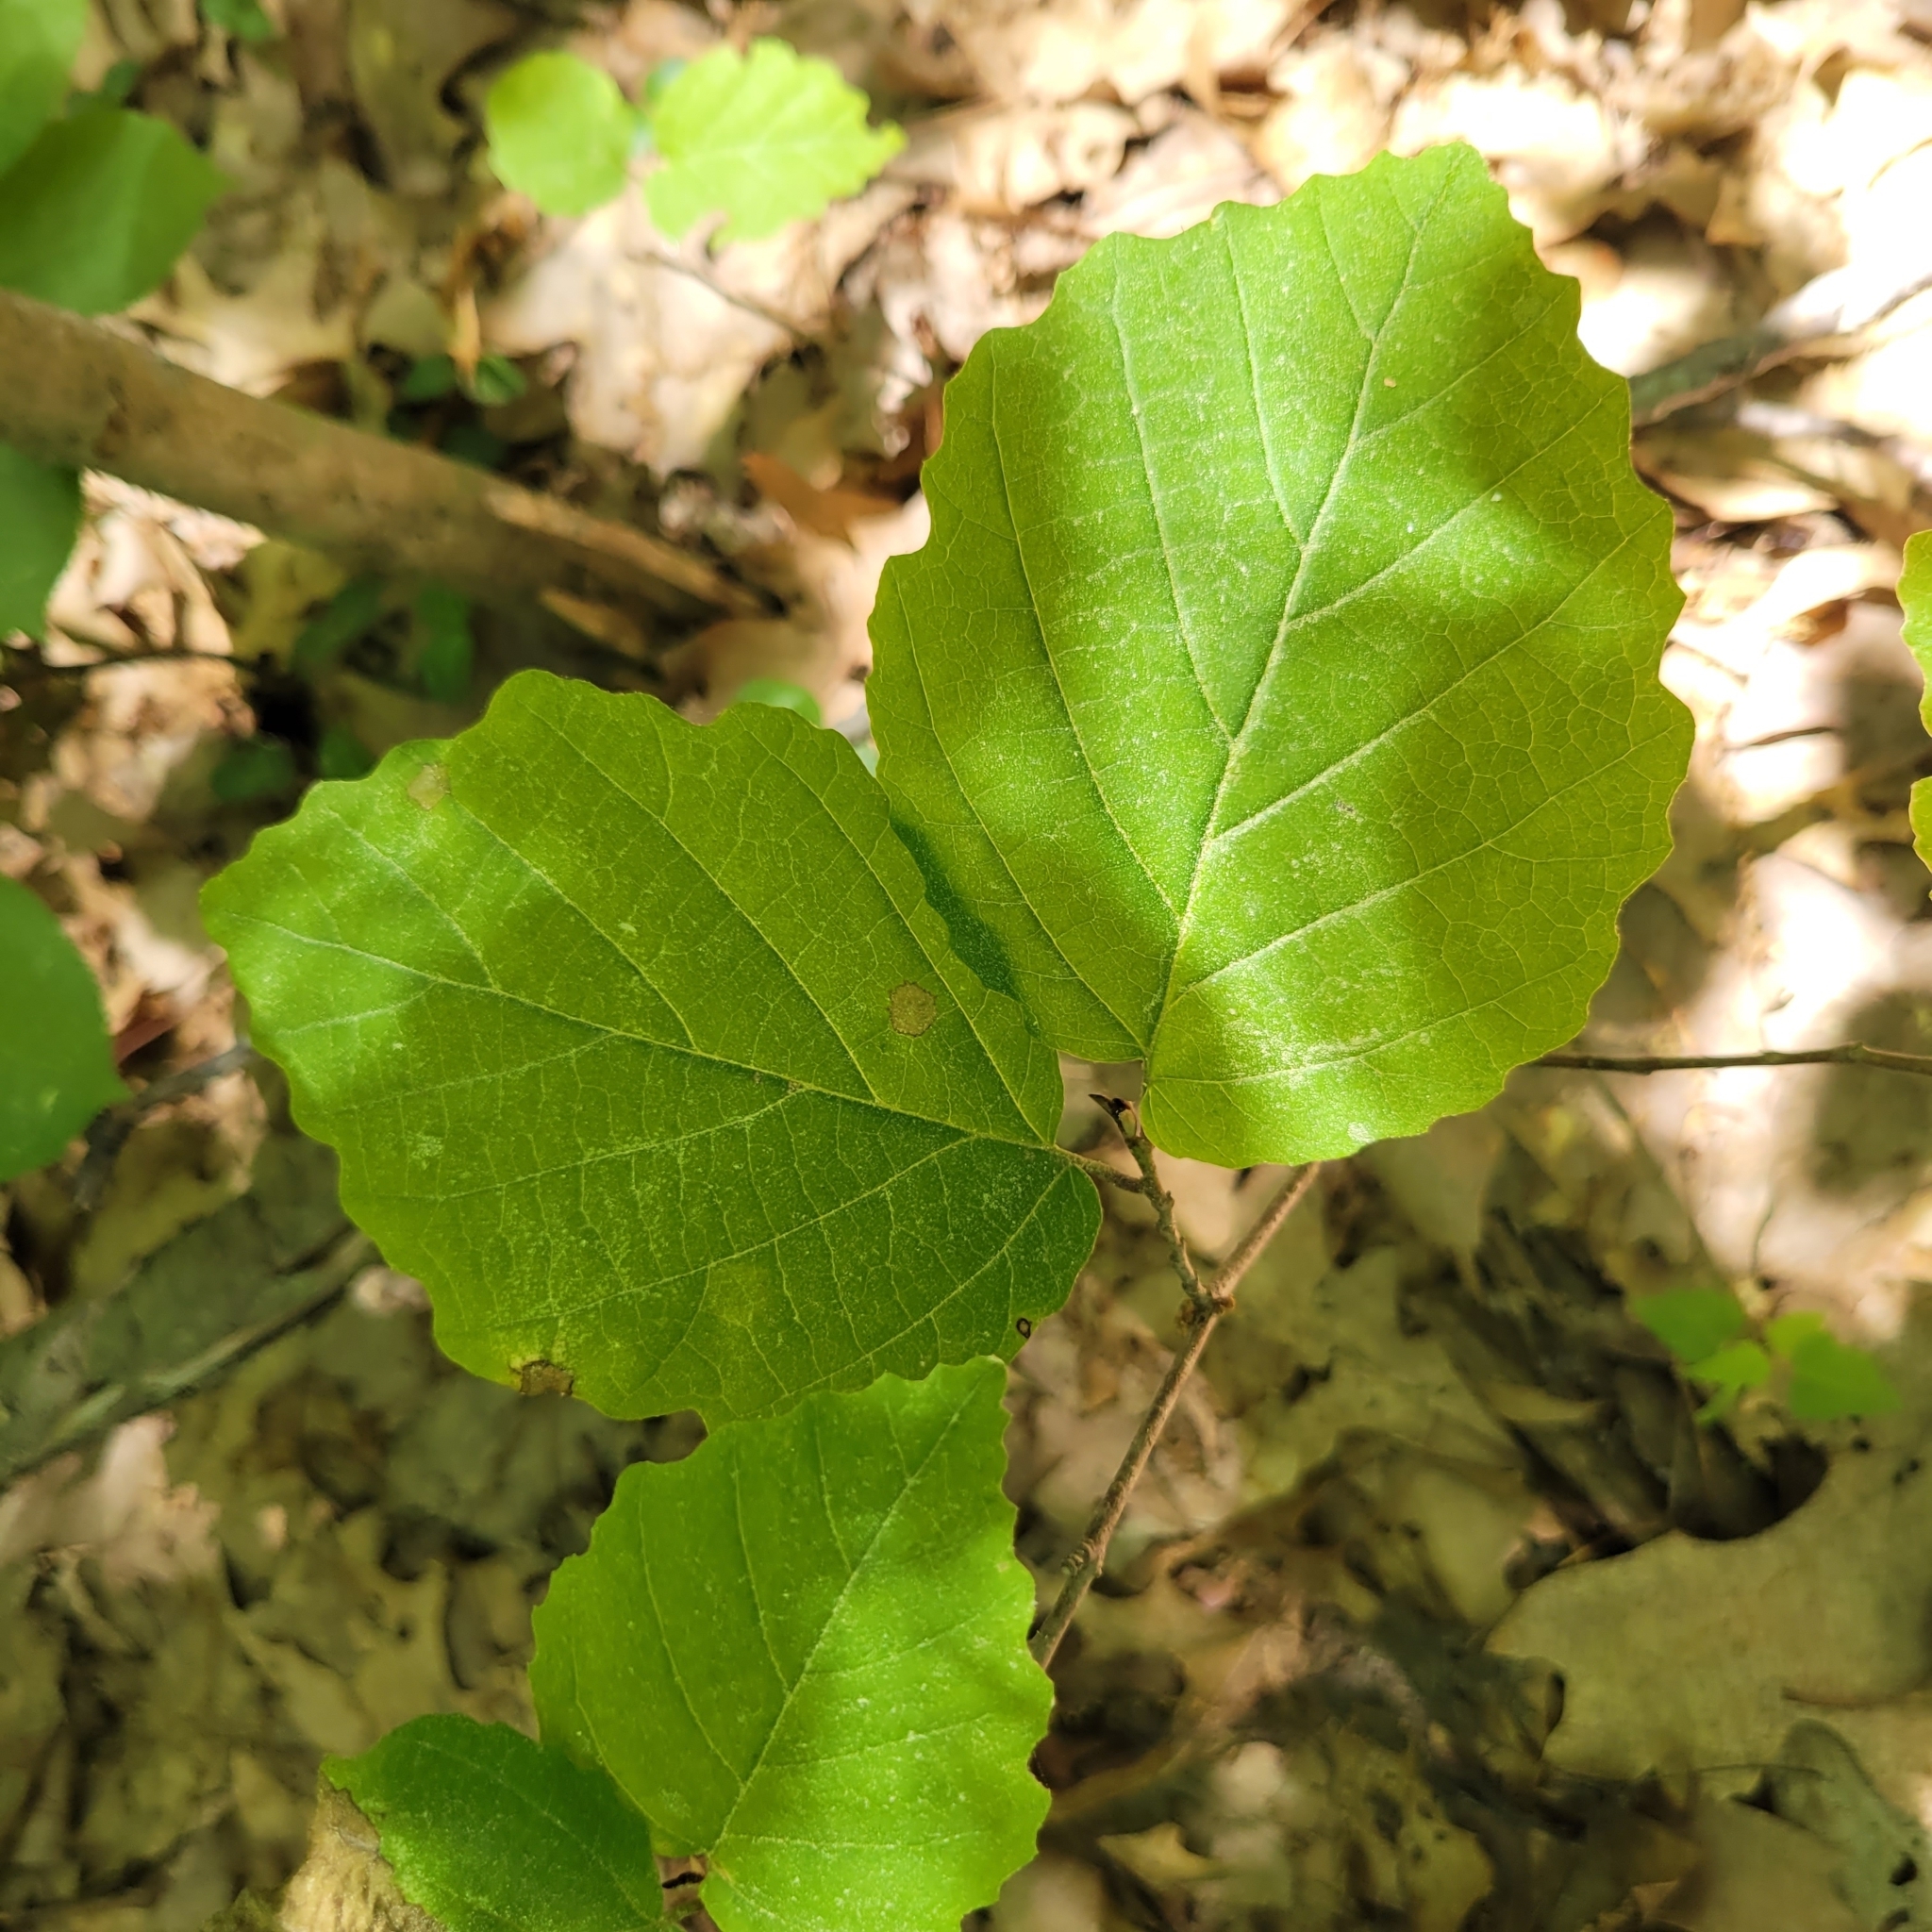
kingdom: Plantae
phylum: Tracheophyta
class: Magnoliopsida
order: Saxifragales
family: Hamamelidaceae
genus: Hamamelis
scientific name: Hamamelis virginiana
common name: Witch-hazel
